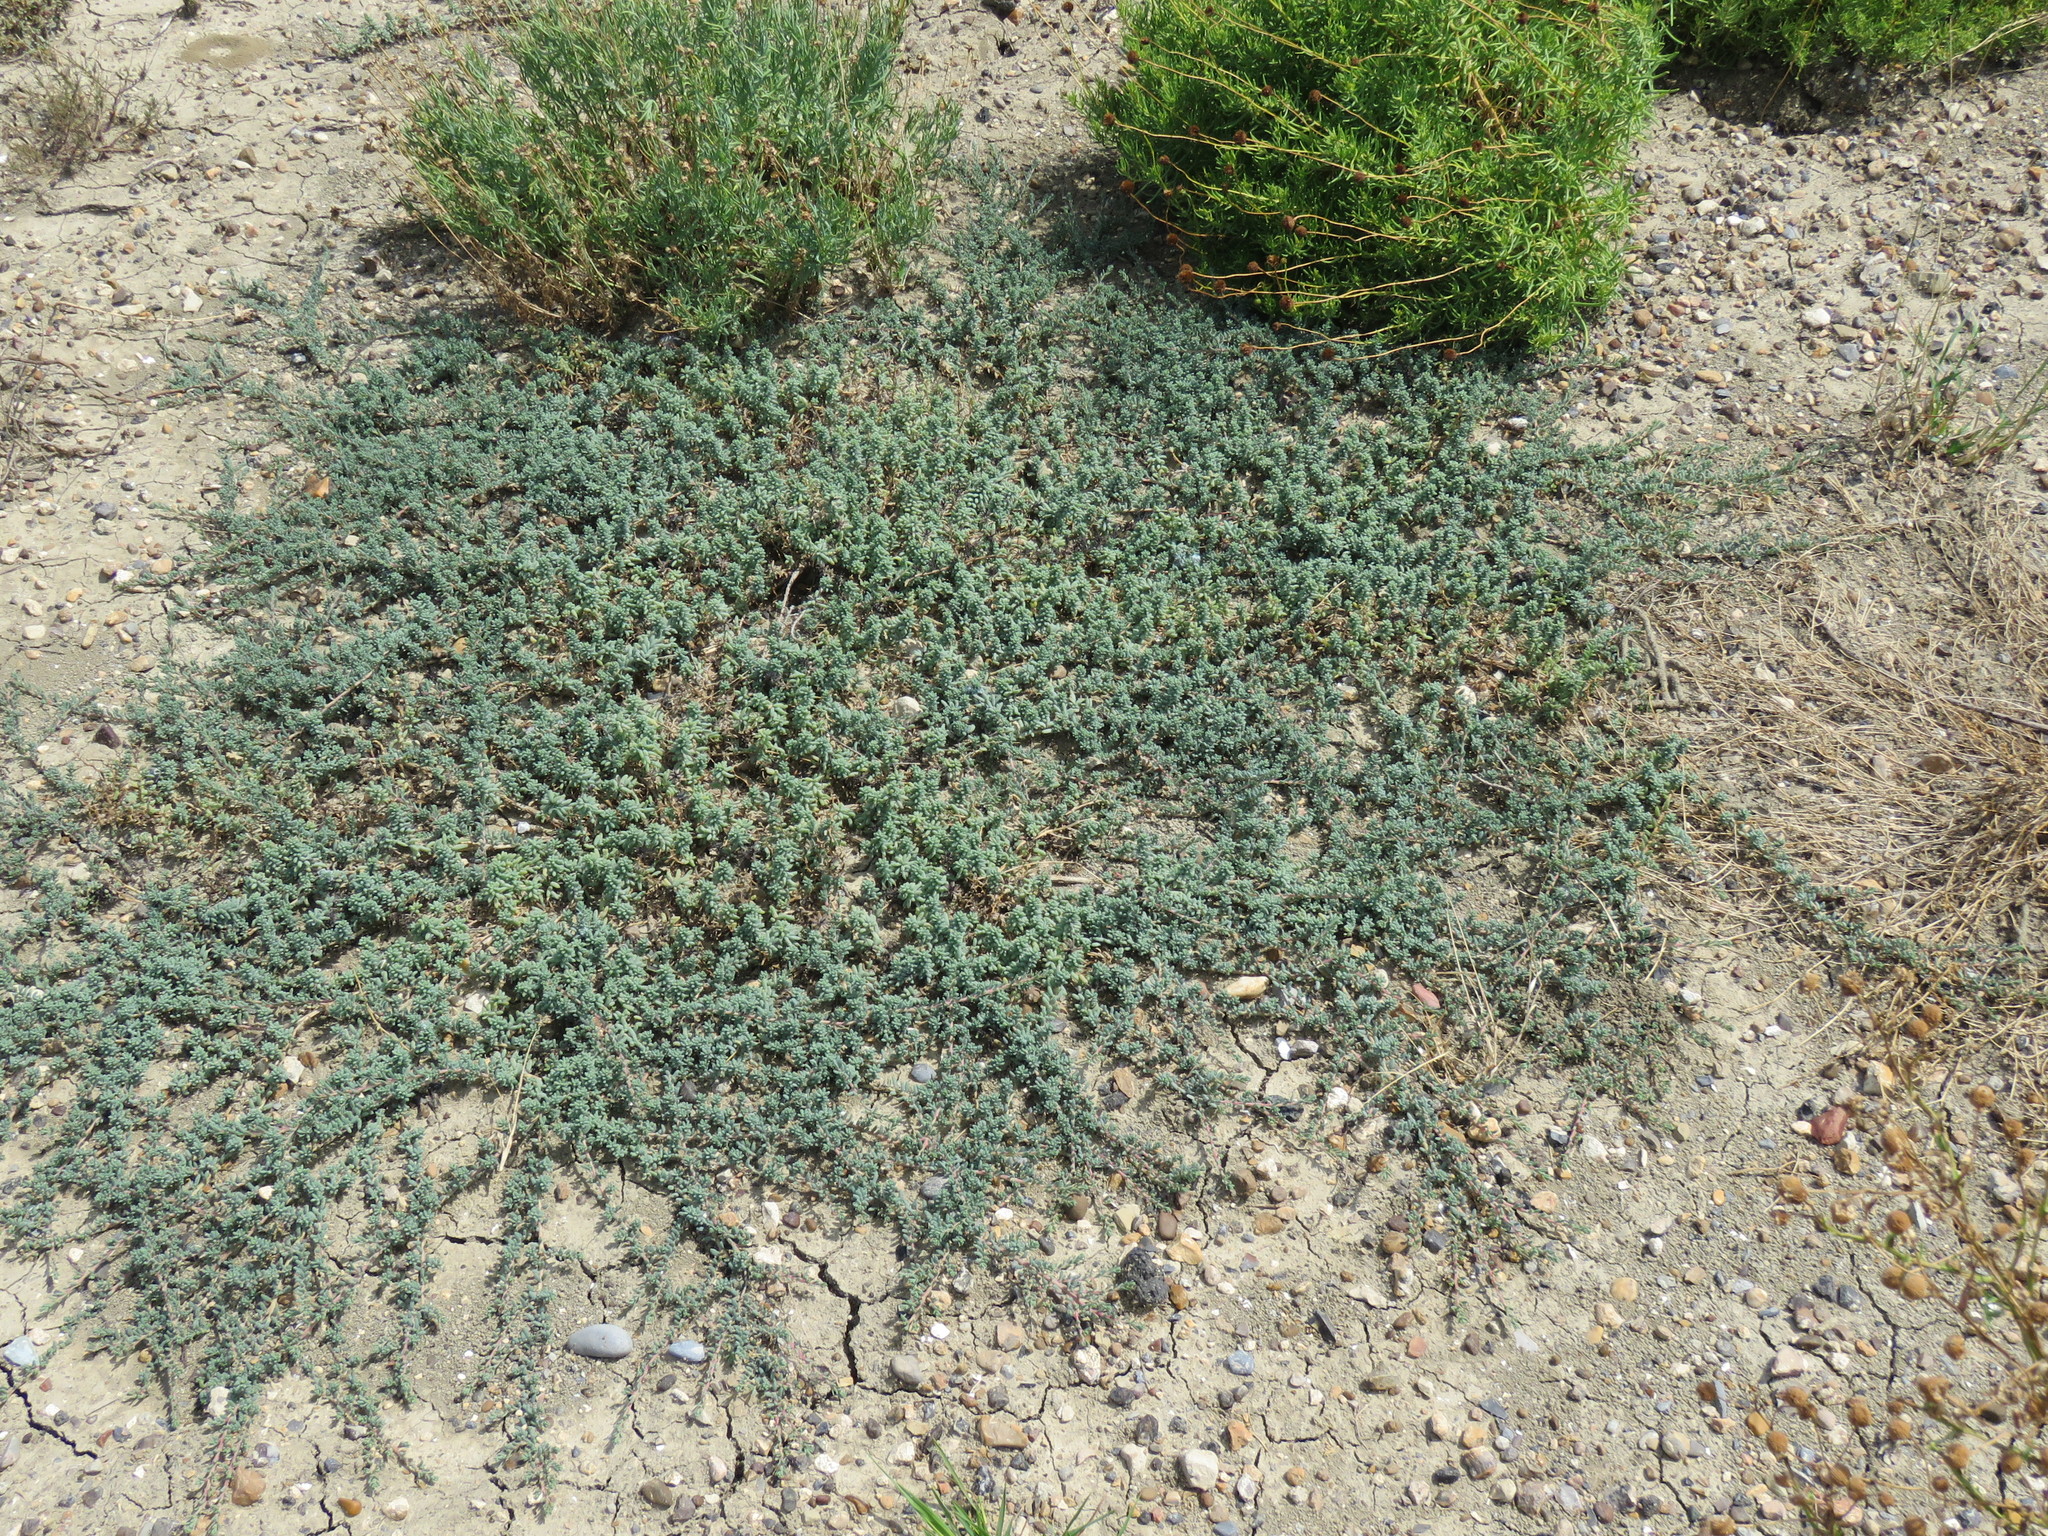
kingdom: Plantae
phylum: Tracheophyta
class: Magnoliopsida
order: Caryophyllales
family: Amaranthaceae
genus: Suaeda
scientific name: Suaeda conferta
